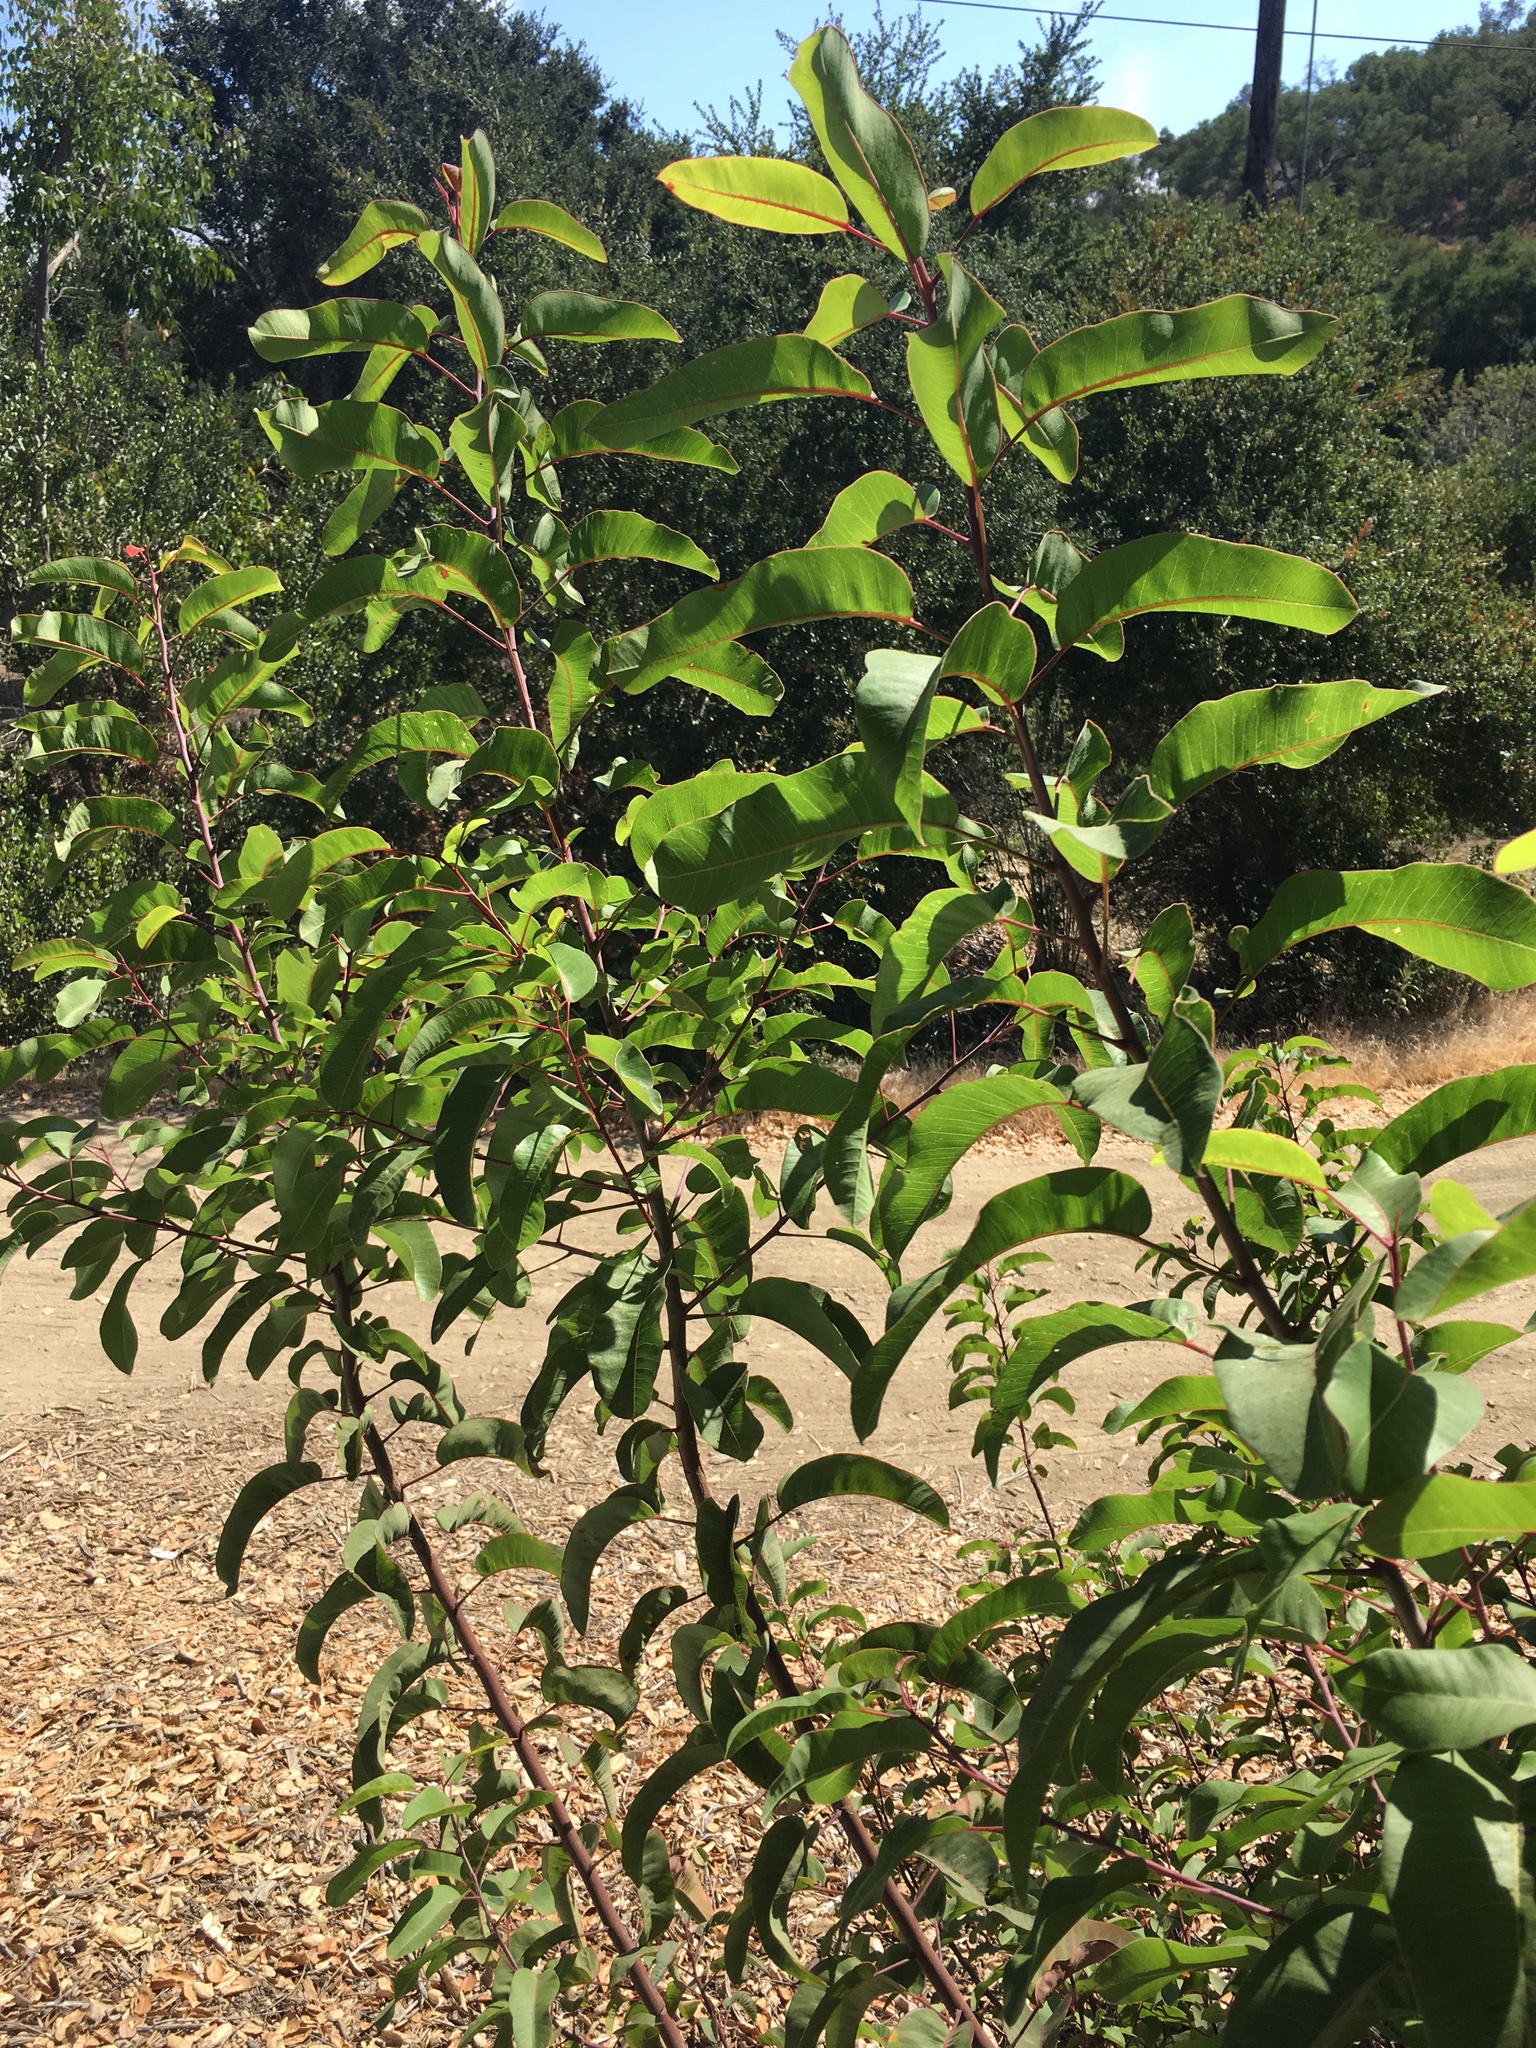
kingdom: Plantae
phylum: Tracheophyta
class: Magnoliopsida
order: Sapindales
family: Anacardiaceae
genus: Malosma
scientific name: Malosma laurina
